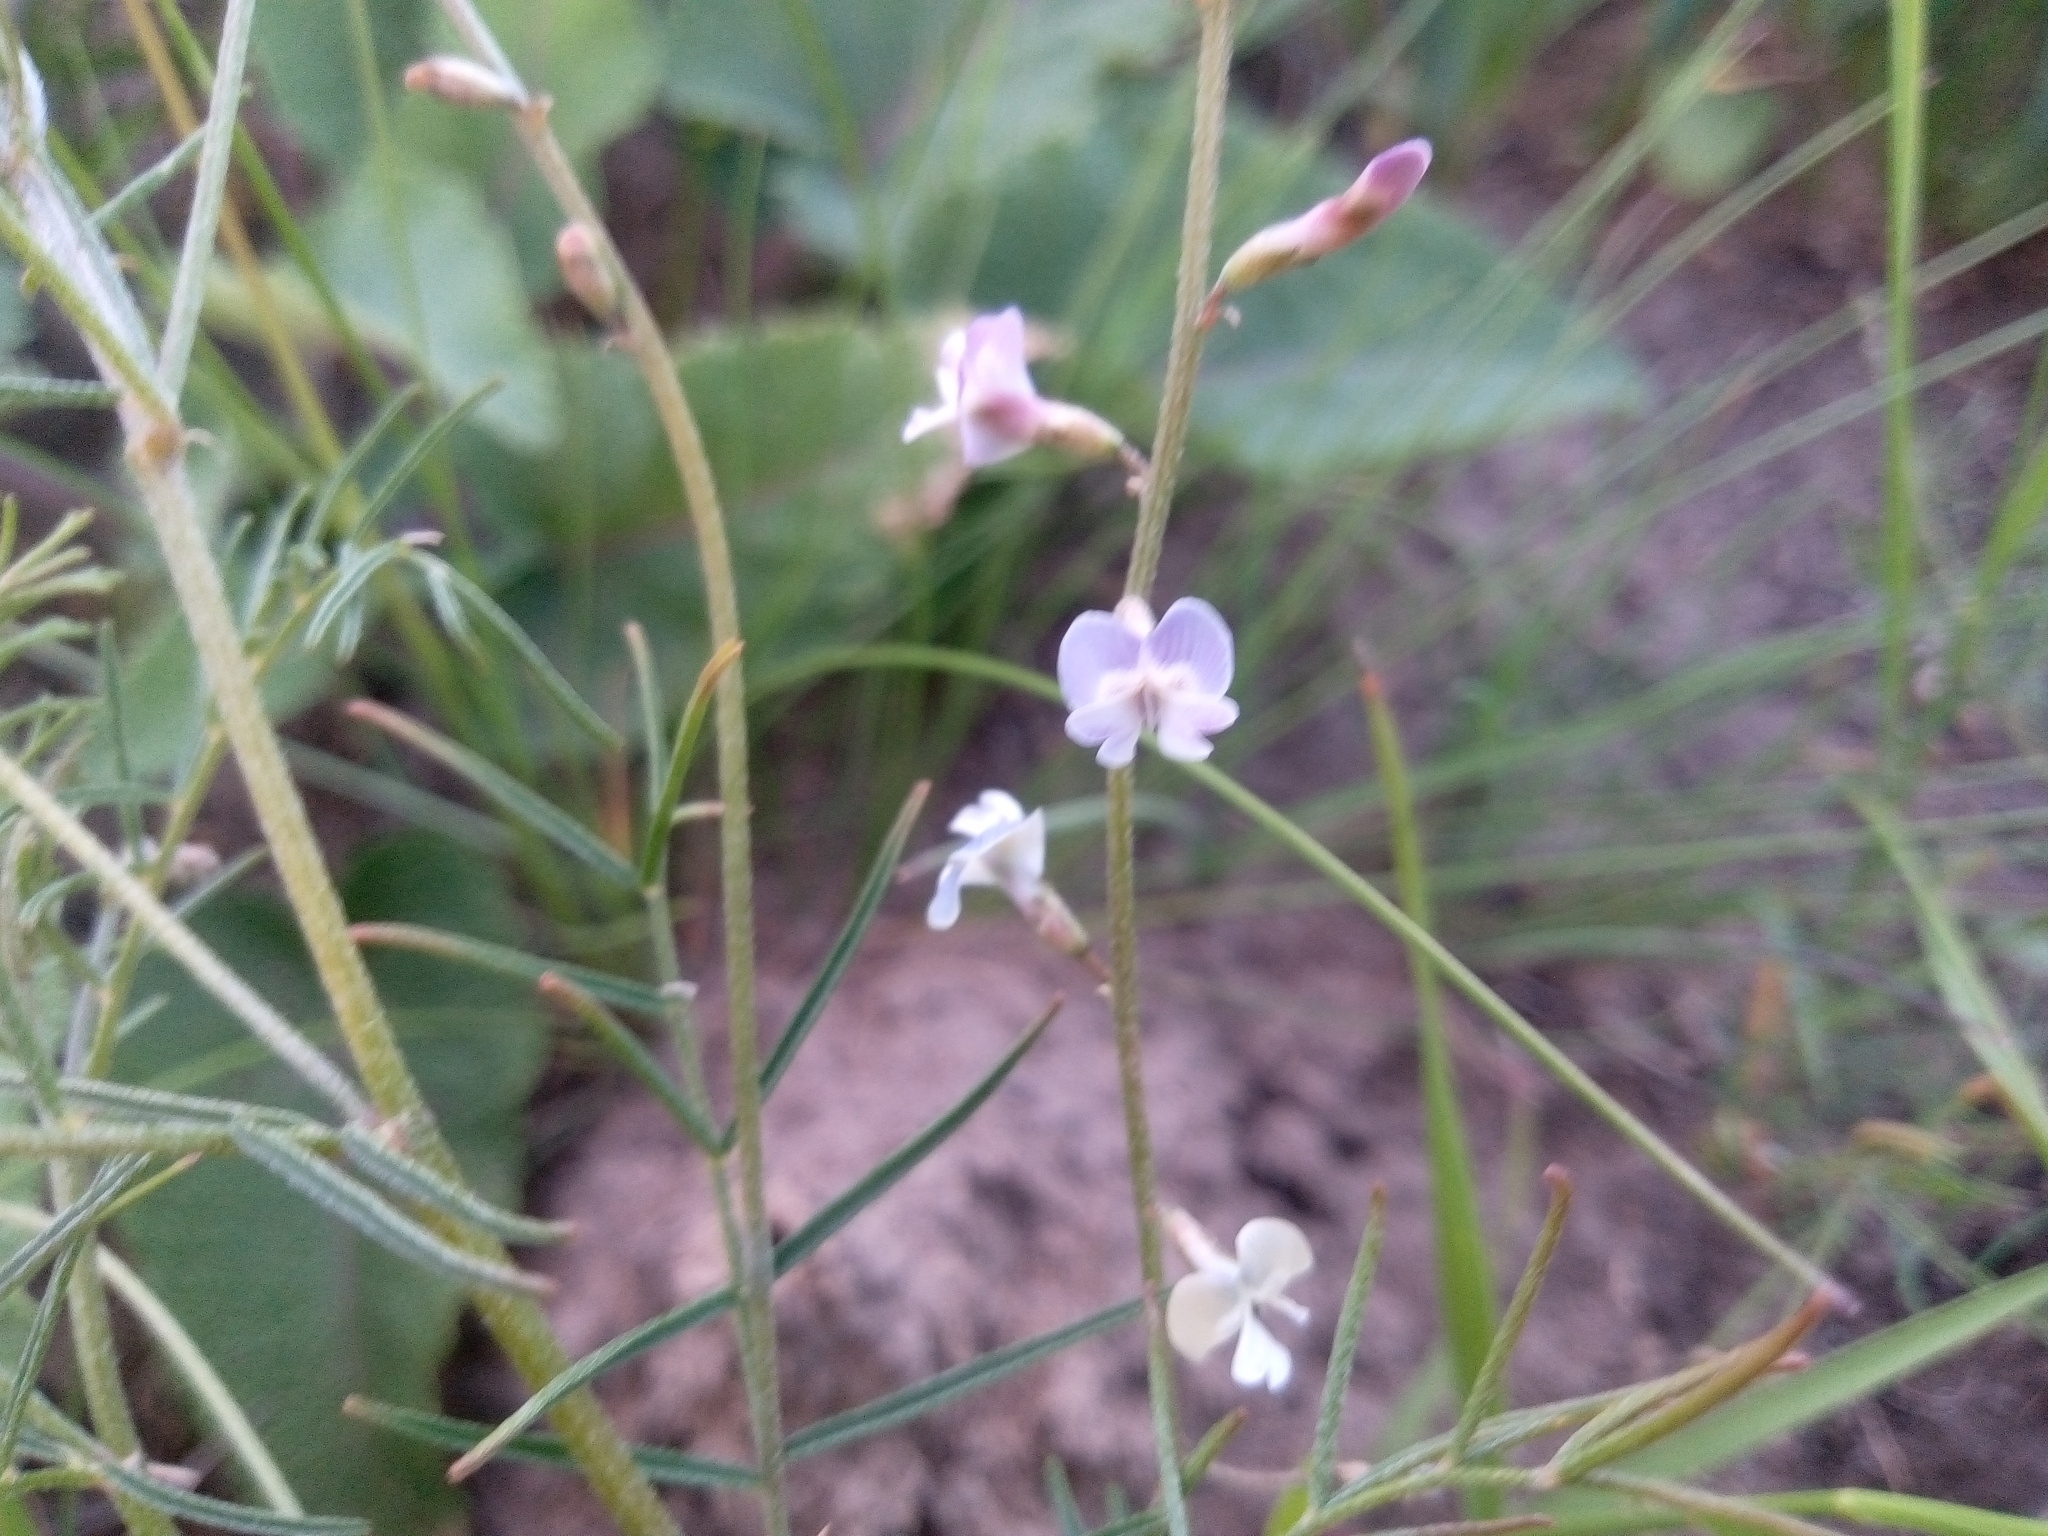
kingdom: Plantae
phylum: Tracheophyta
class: Magnoliopsida
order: Fabales
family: Fabaceae
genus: Astragalus
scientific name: Astragalus austriacus
